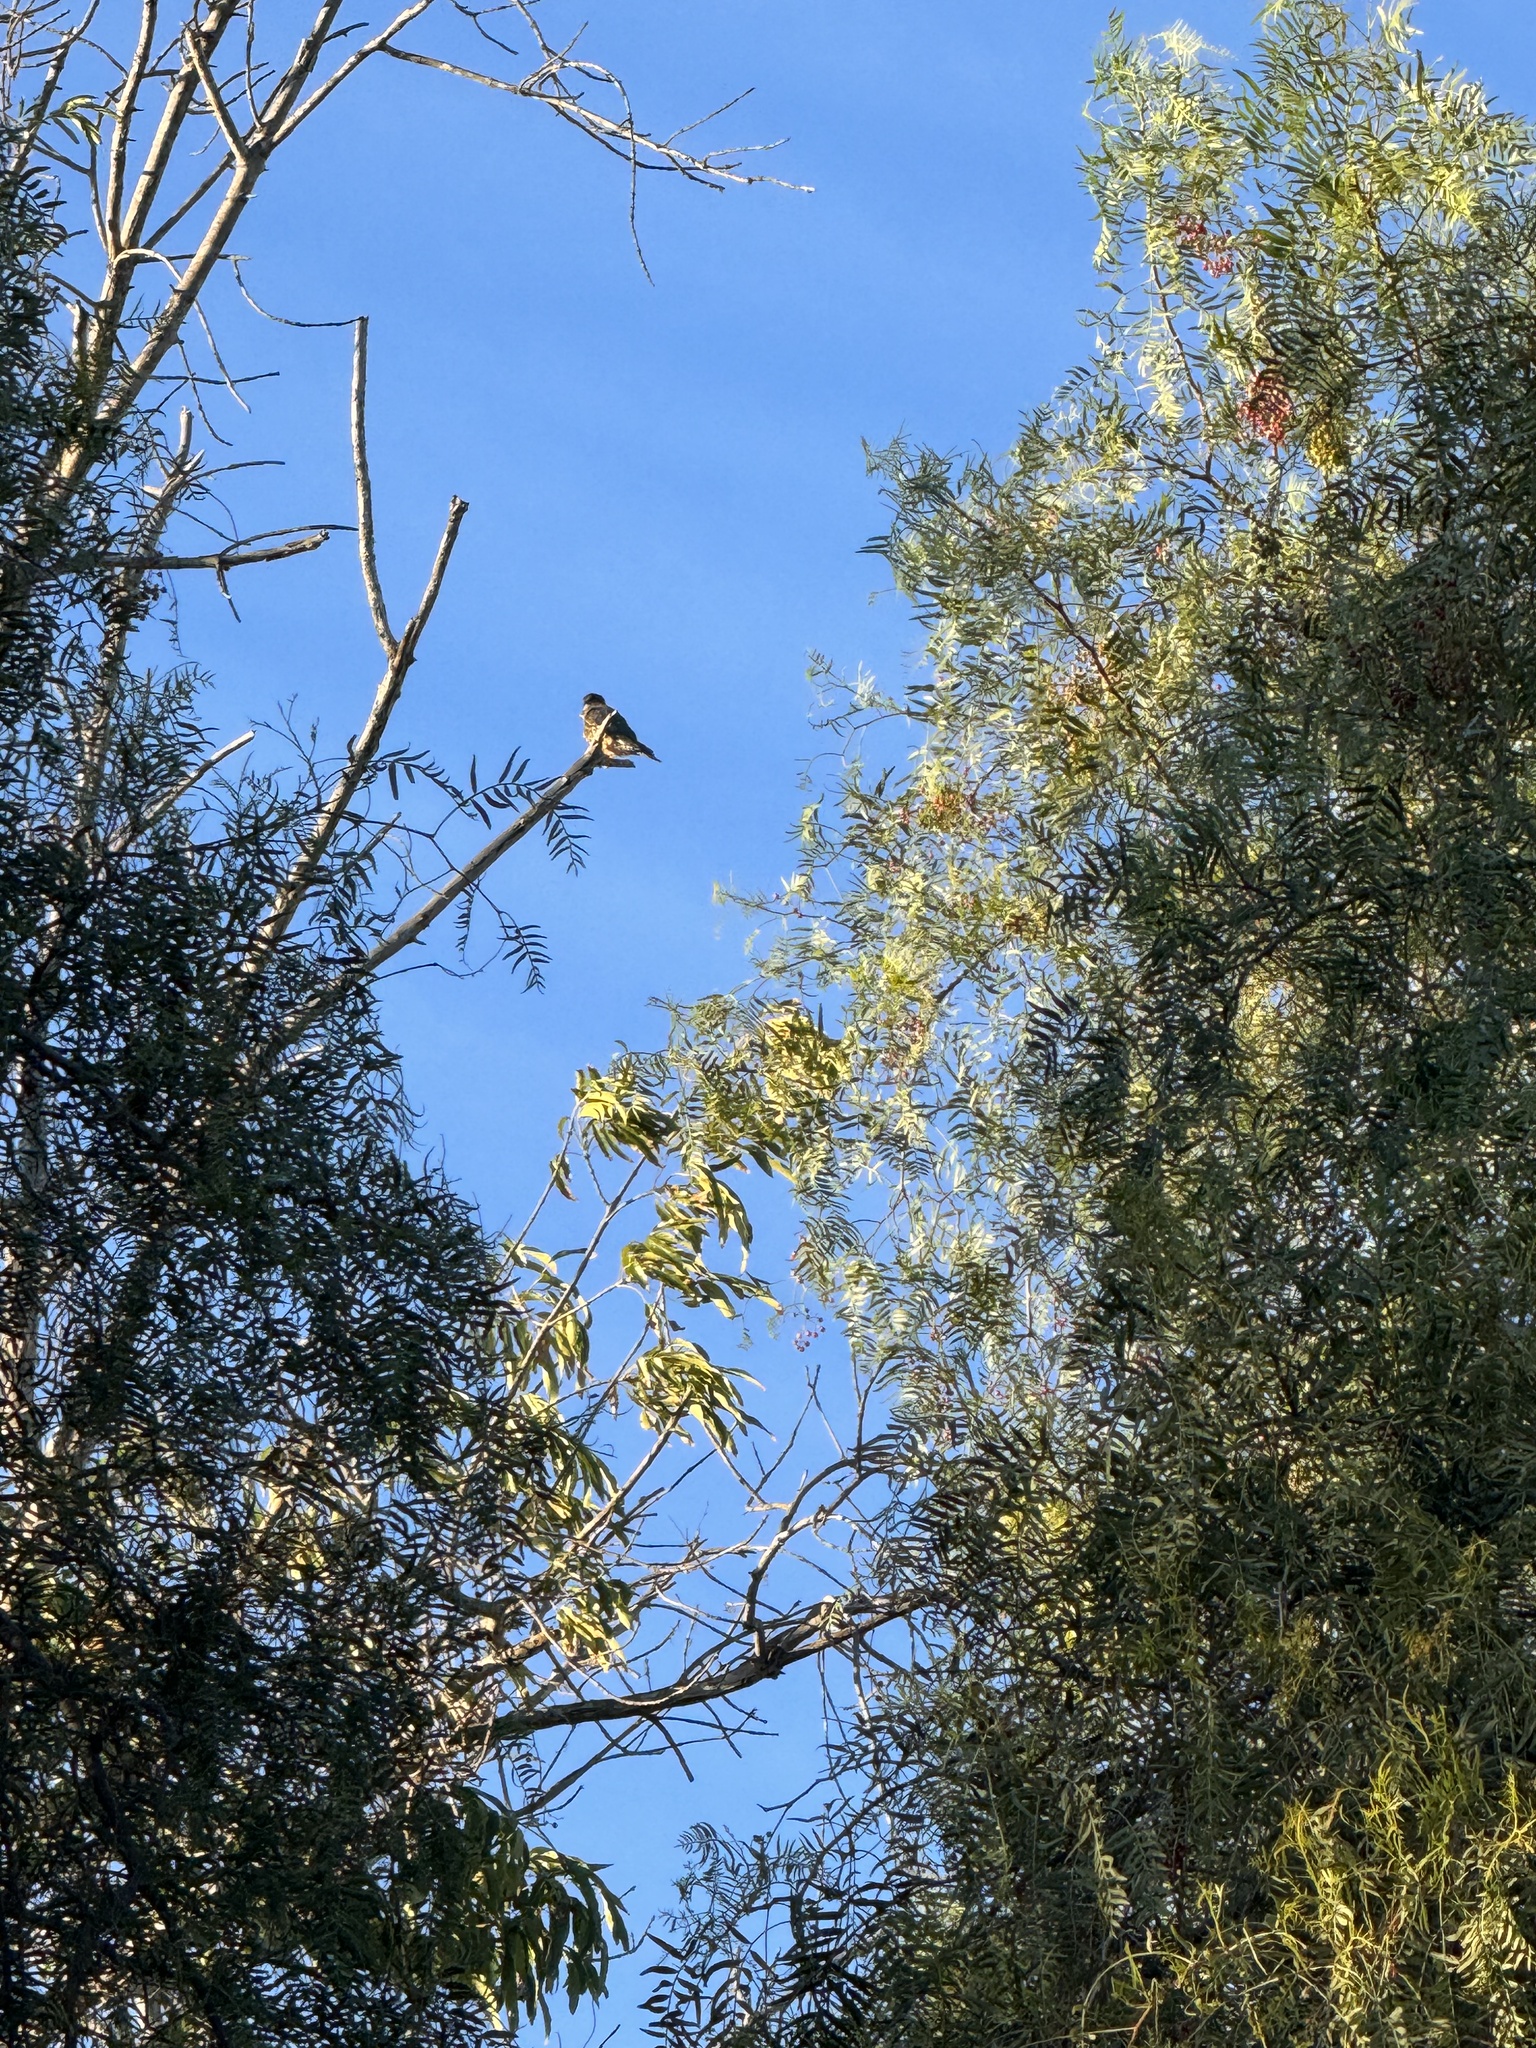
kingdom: Animalia
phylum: Chordata
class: Aves
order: Falconiformes
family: Falconidae
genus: Falco
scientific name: Falco columbarius
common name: Merlin
